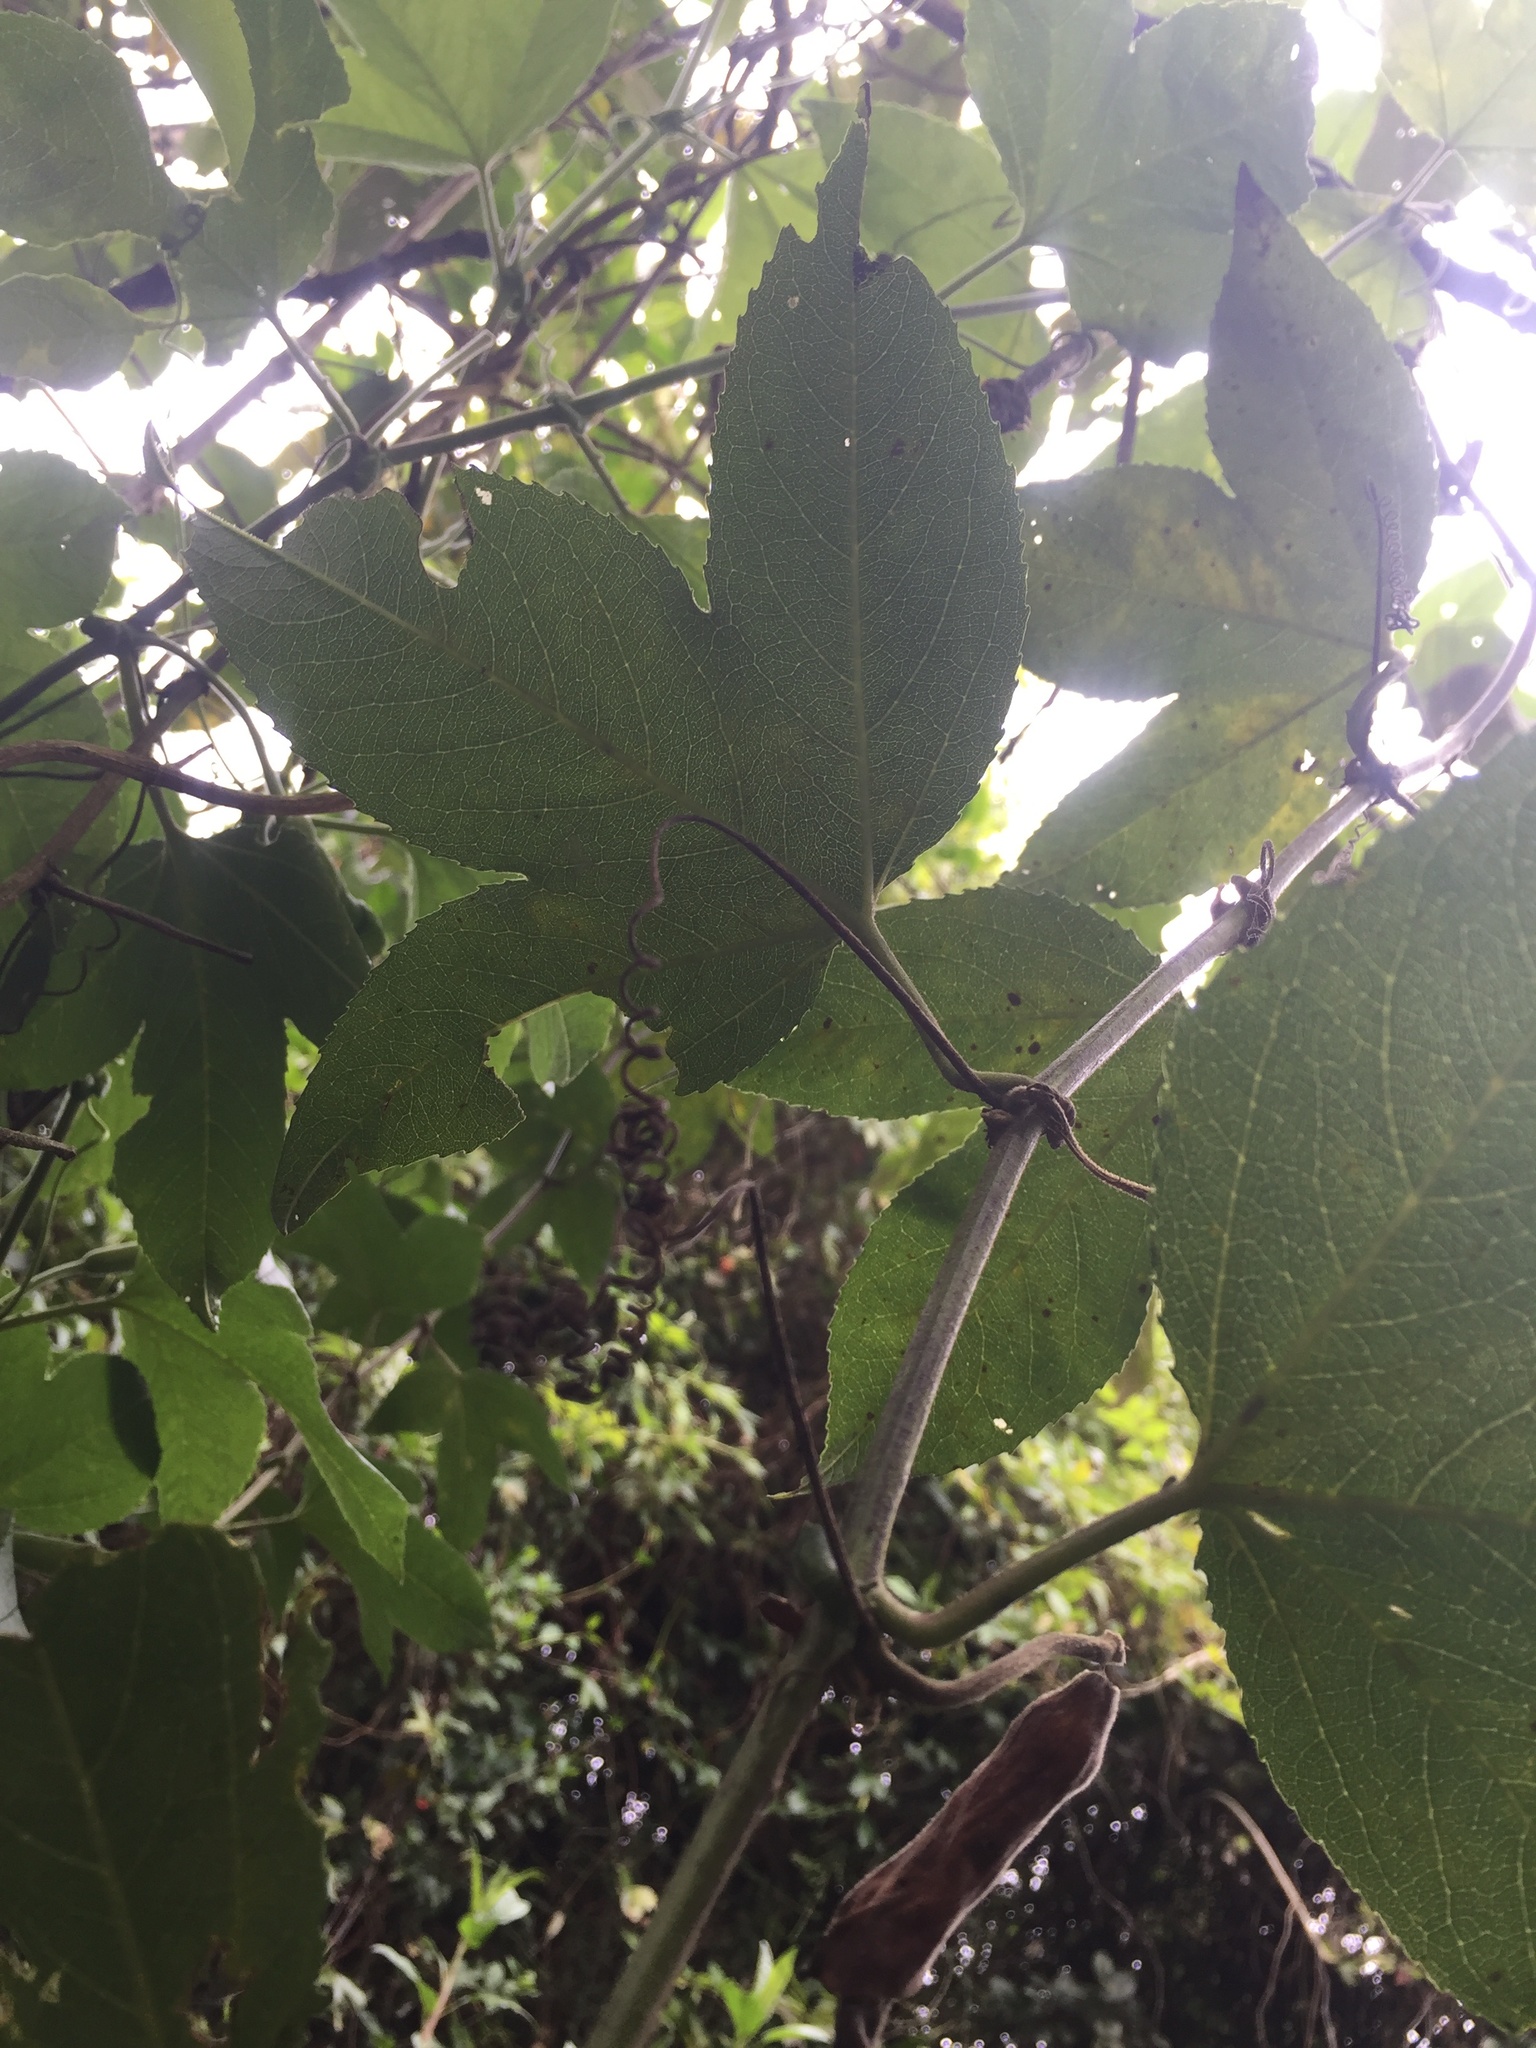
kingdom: Plantae
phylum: Tracheophyta
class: Magnoliopsida
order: Malpighiales
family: Passifloraceae
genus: Passiflora
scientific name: Passiflora mixta
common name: Passion flower
